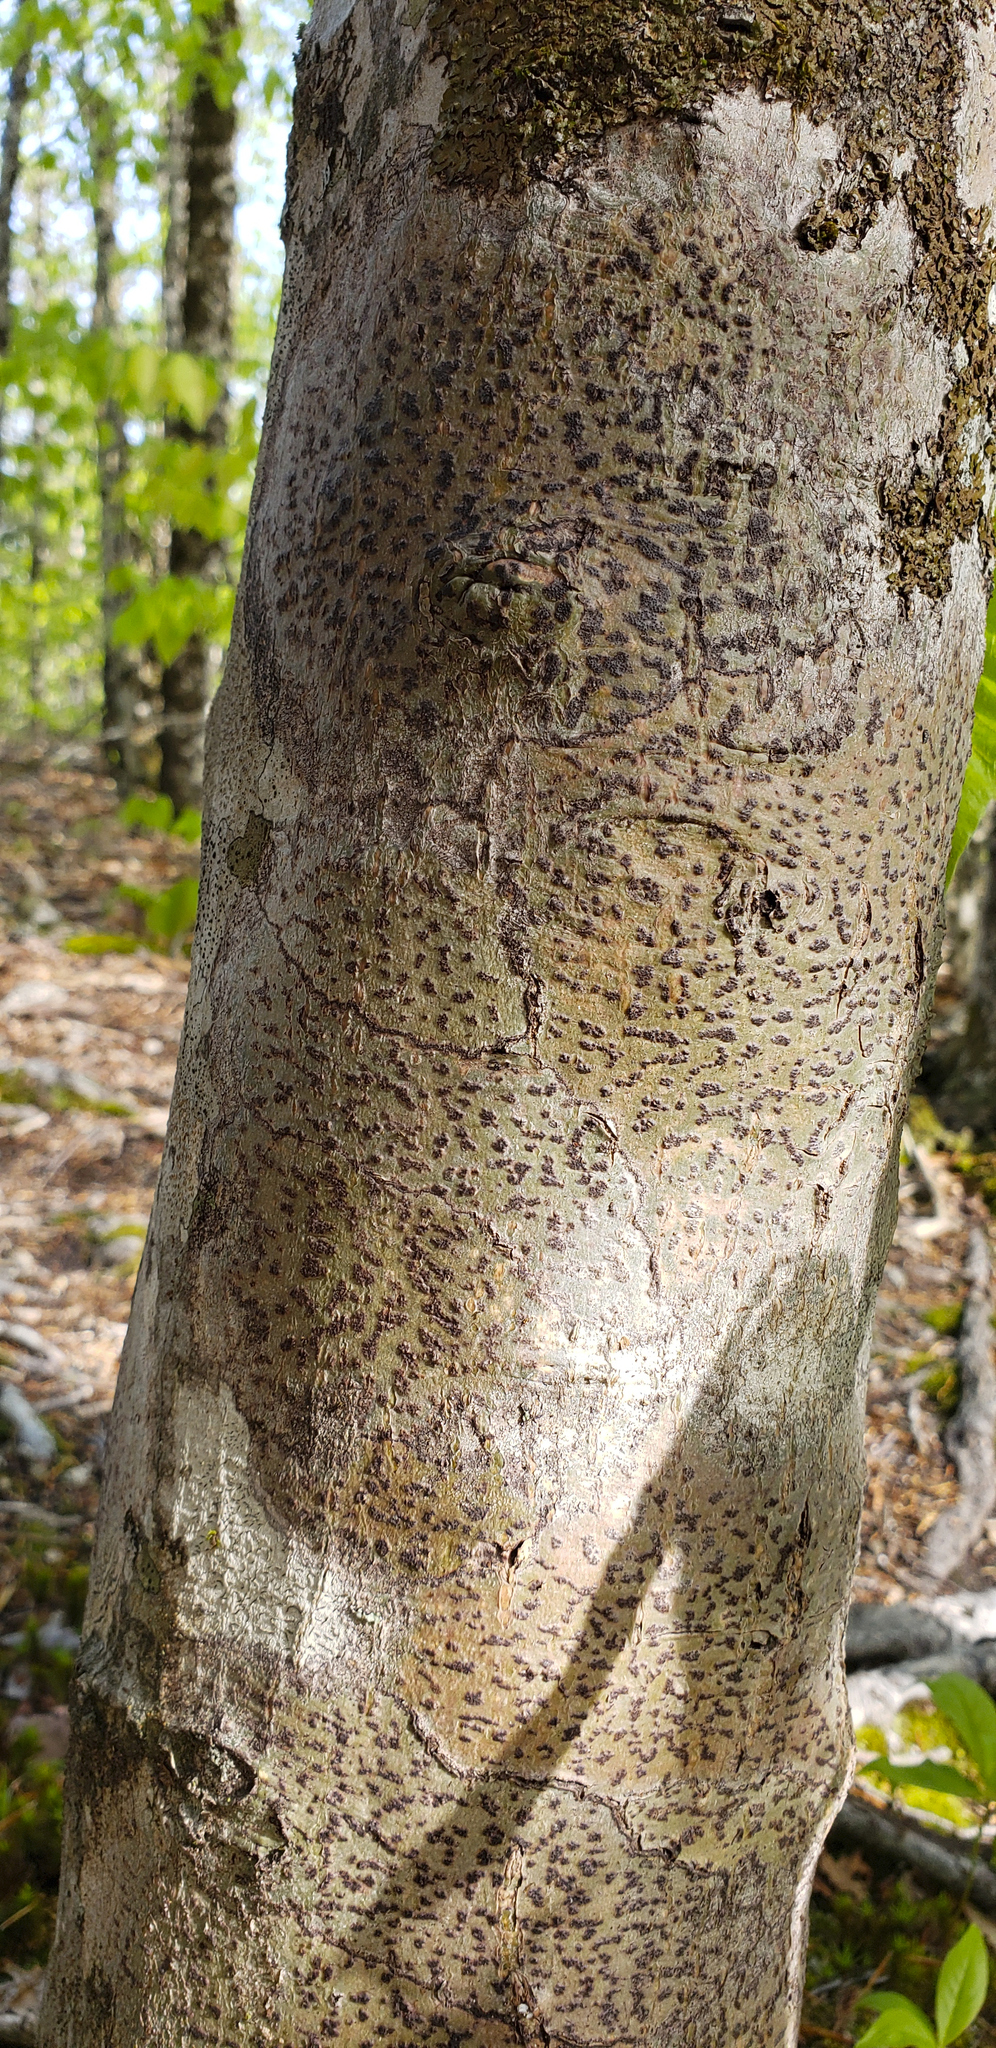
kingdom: Fungi
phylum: Ascomycota
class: Dothideomycetes
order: Trypetheliales
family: Trypetheliaceae
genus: Viridothelium
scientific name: Viridothelium virens
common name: Speckled blister lichen
